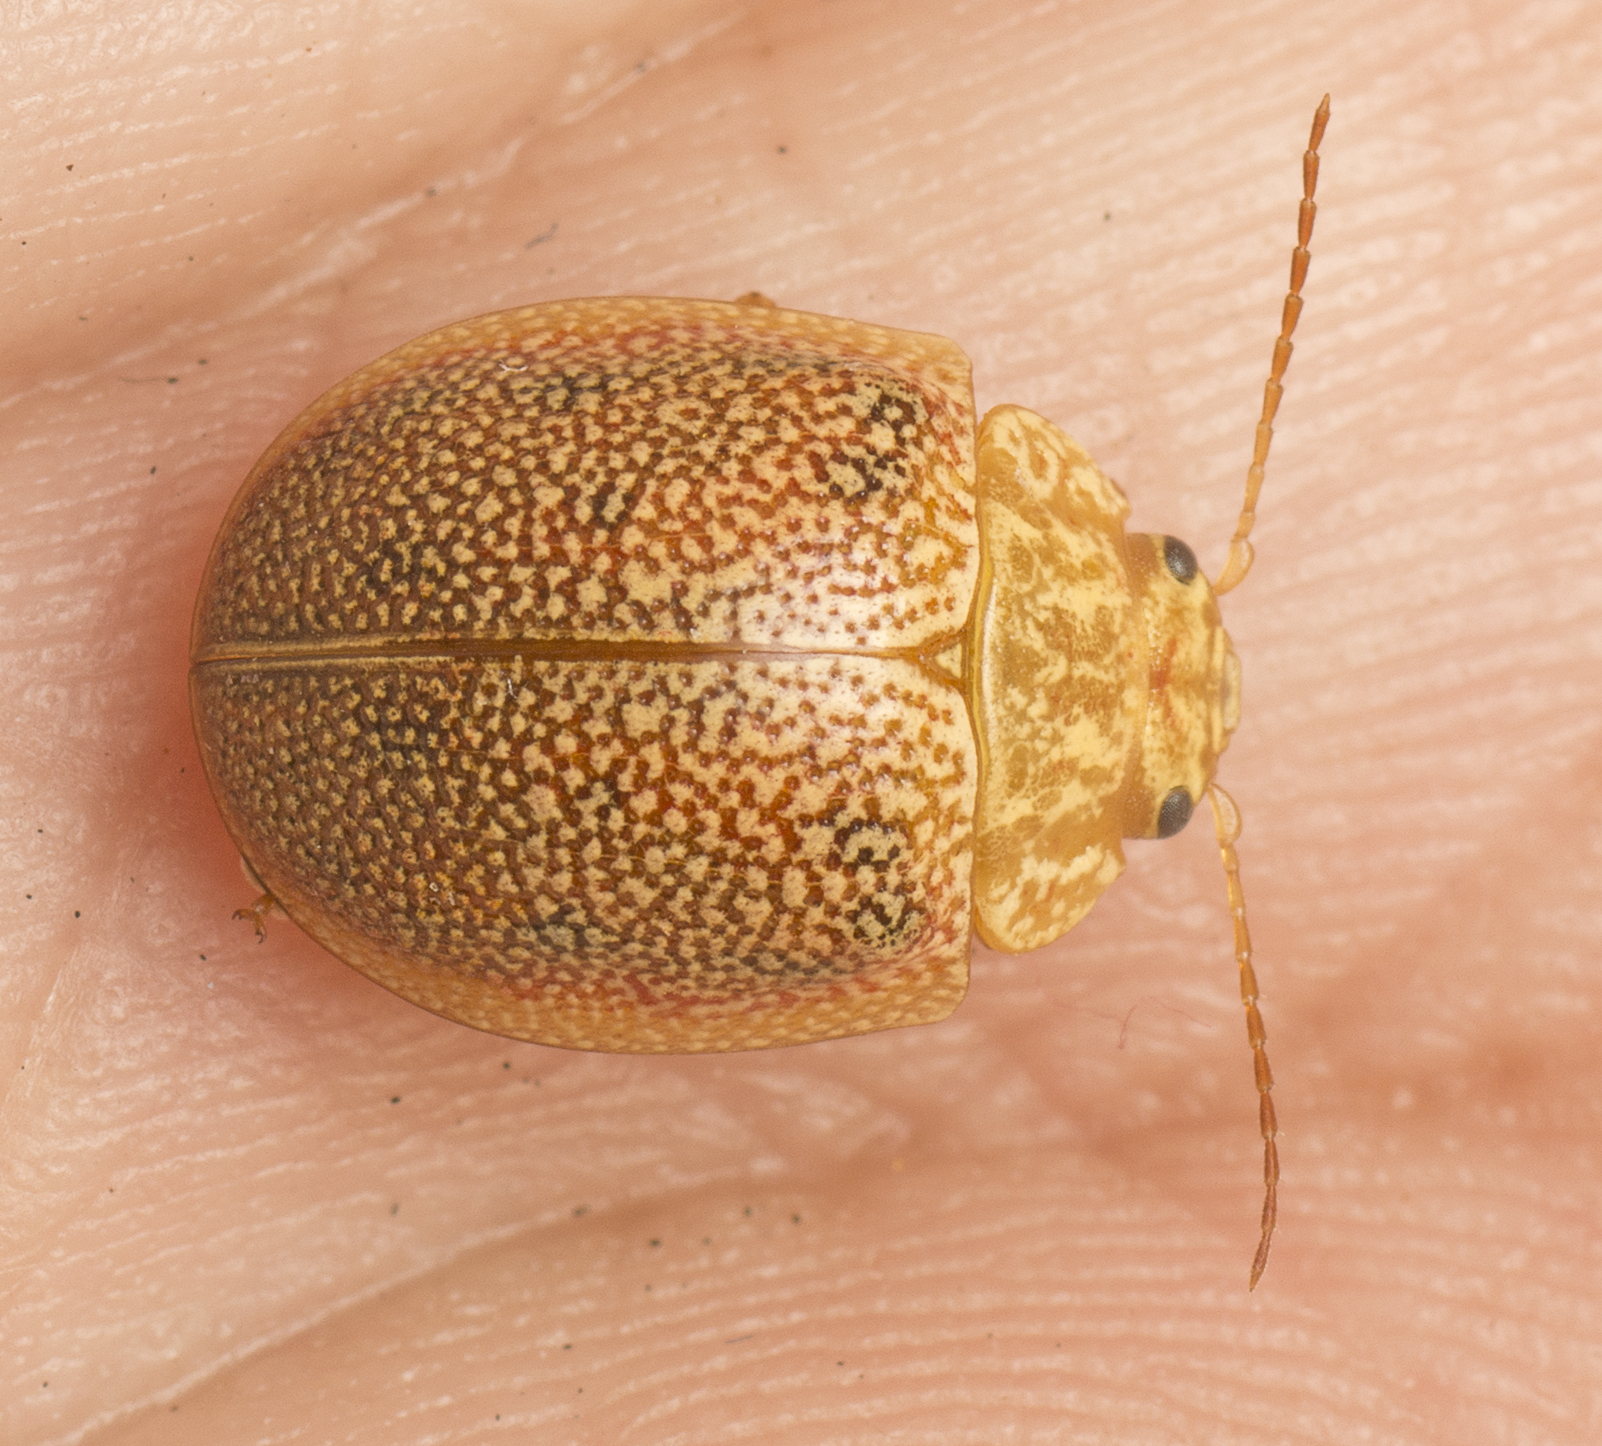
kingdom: Animalia
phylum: Arthropoda
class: Insecta
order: Coleoptera
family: Chrysomelidae
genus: Paropsis
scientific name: Paropsis
